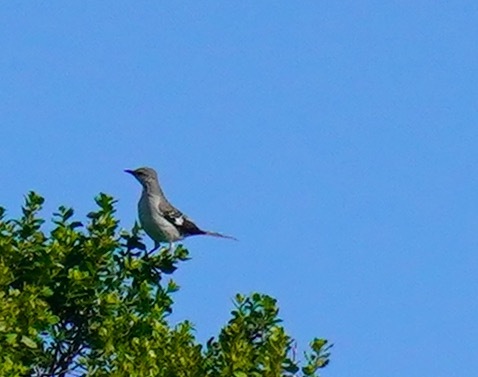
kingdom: Animalia
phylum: Chordata
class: Aves
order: Passeriformes
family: Mimidae
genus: Mimus
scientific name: Mimus polyglottos
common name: Northern mockingbird
